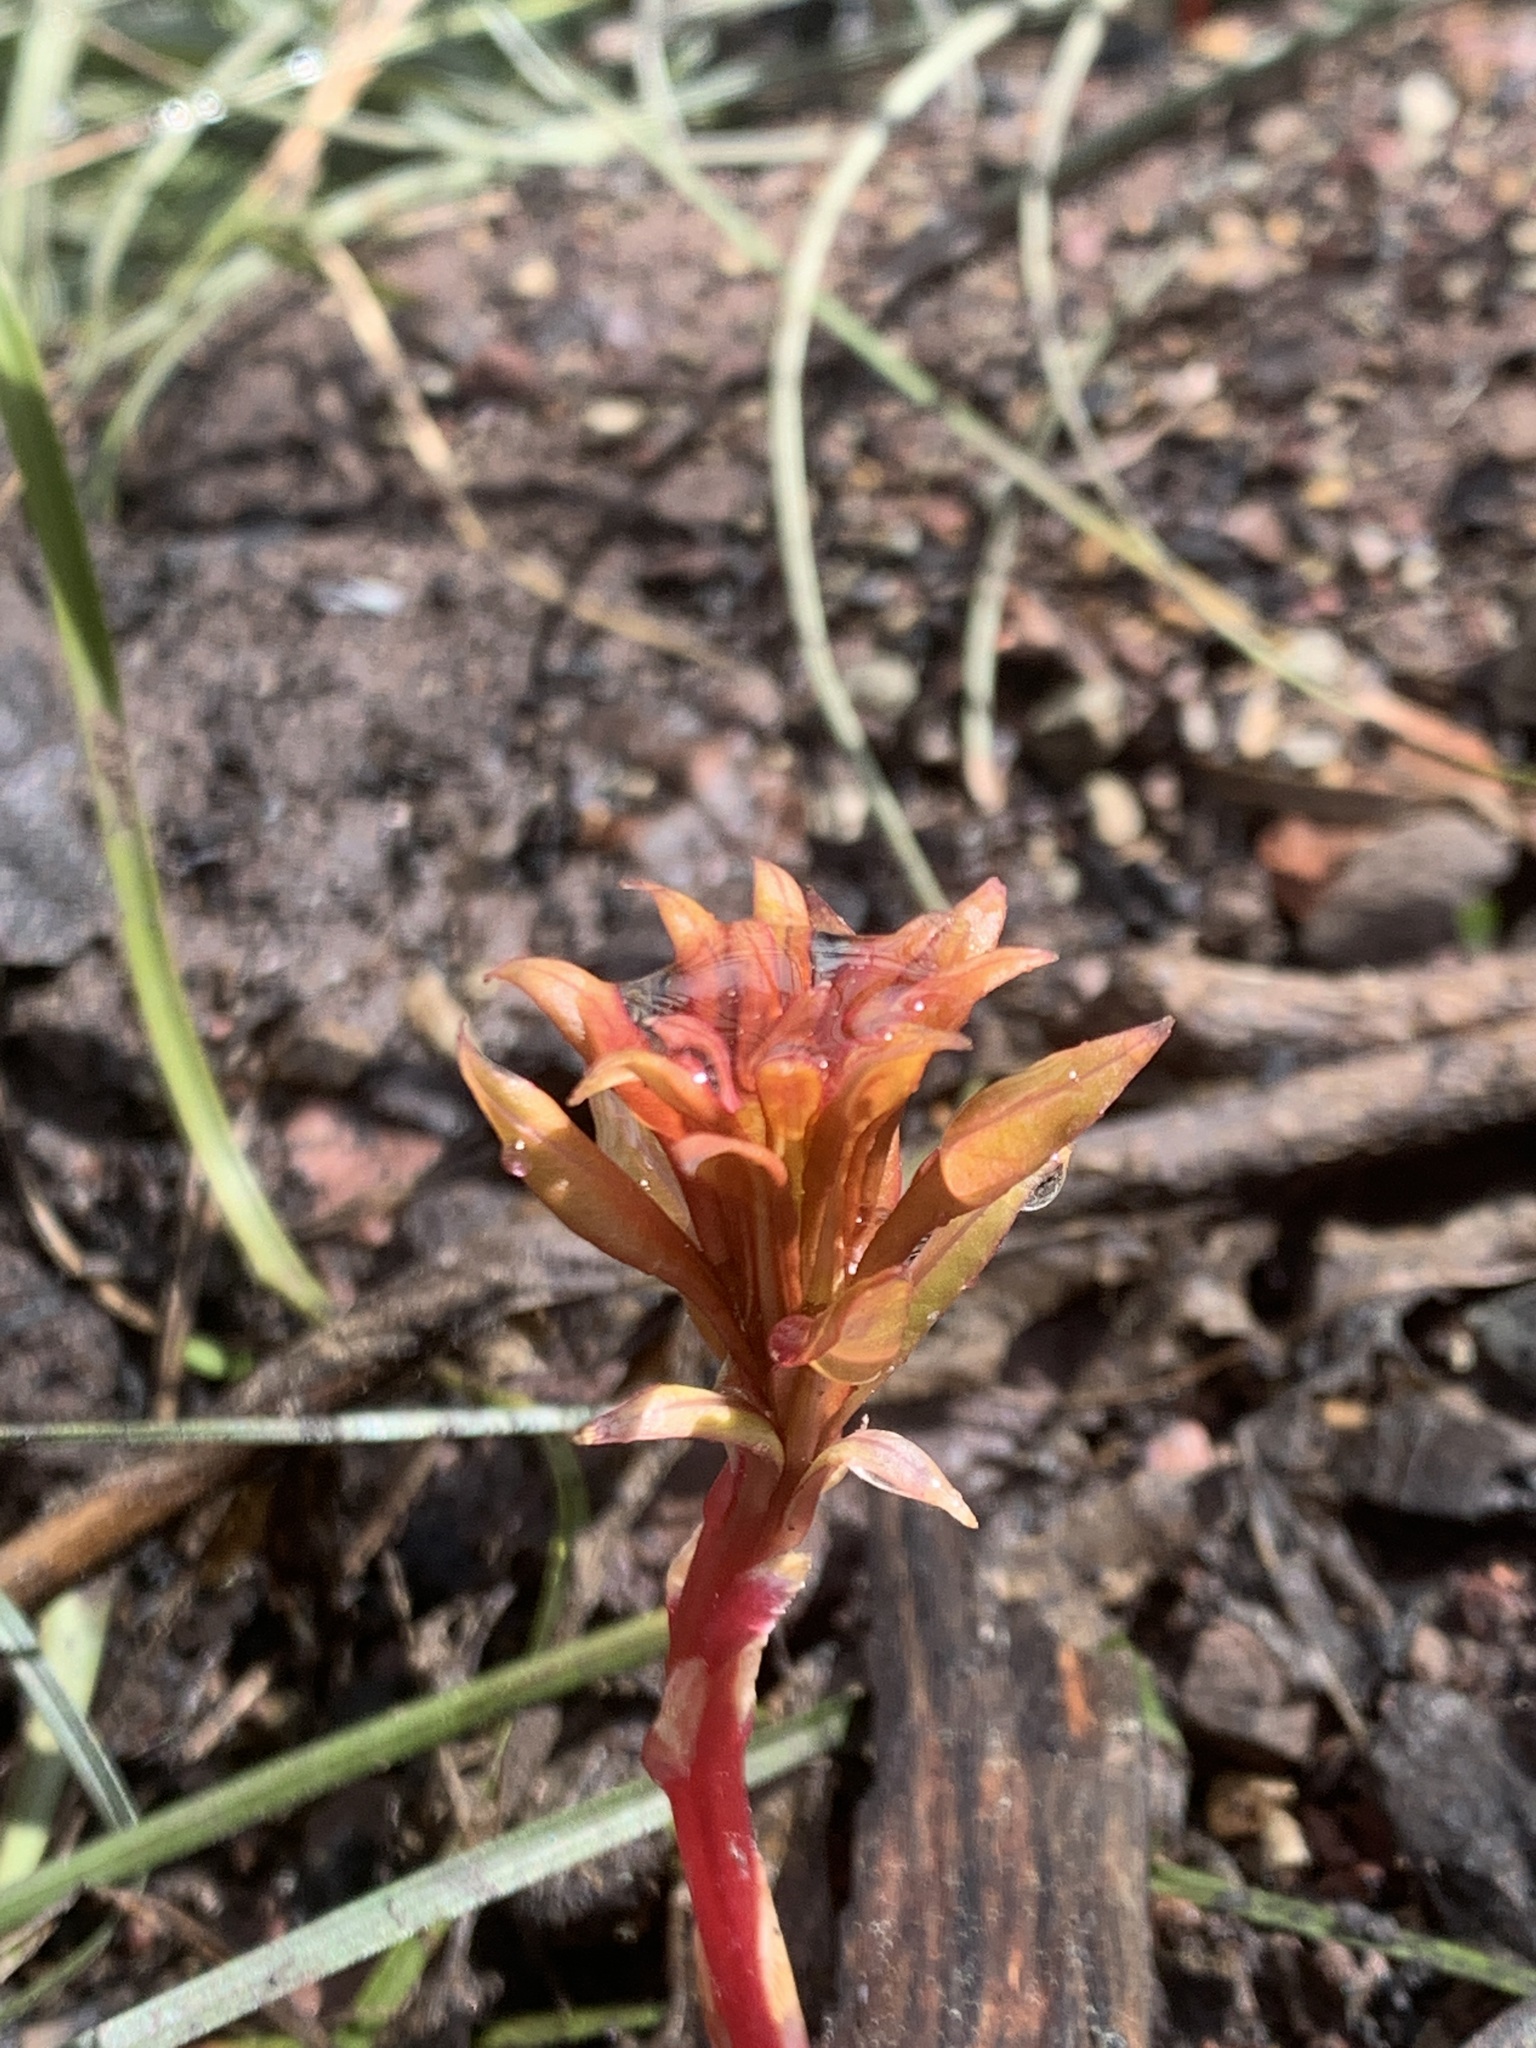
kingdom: Plantae
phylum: Tracheophyta
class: Magnoliopsida
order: Saxifragales
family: Crassulaceae
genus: Sedum
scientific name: Sedum lanceolatum
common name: Common stonecrop
